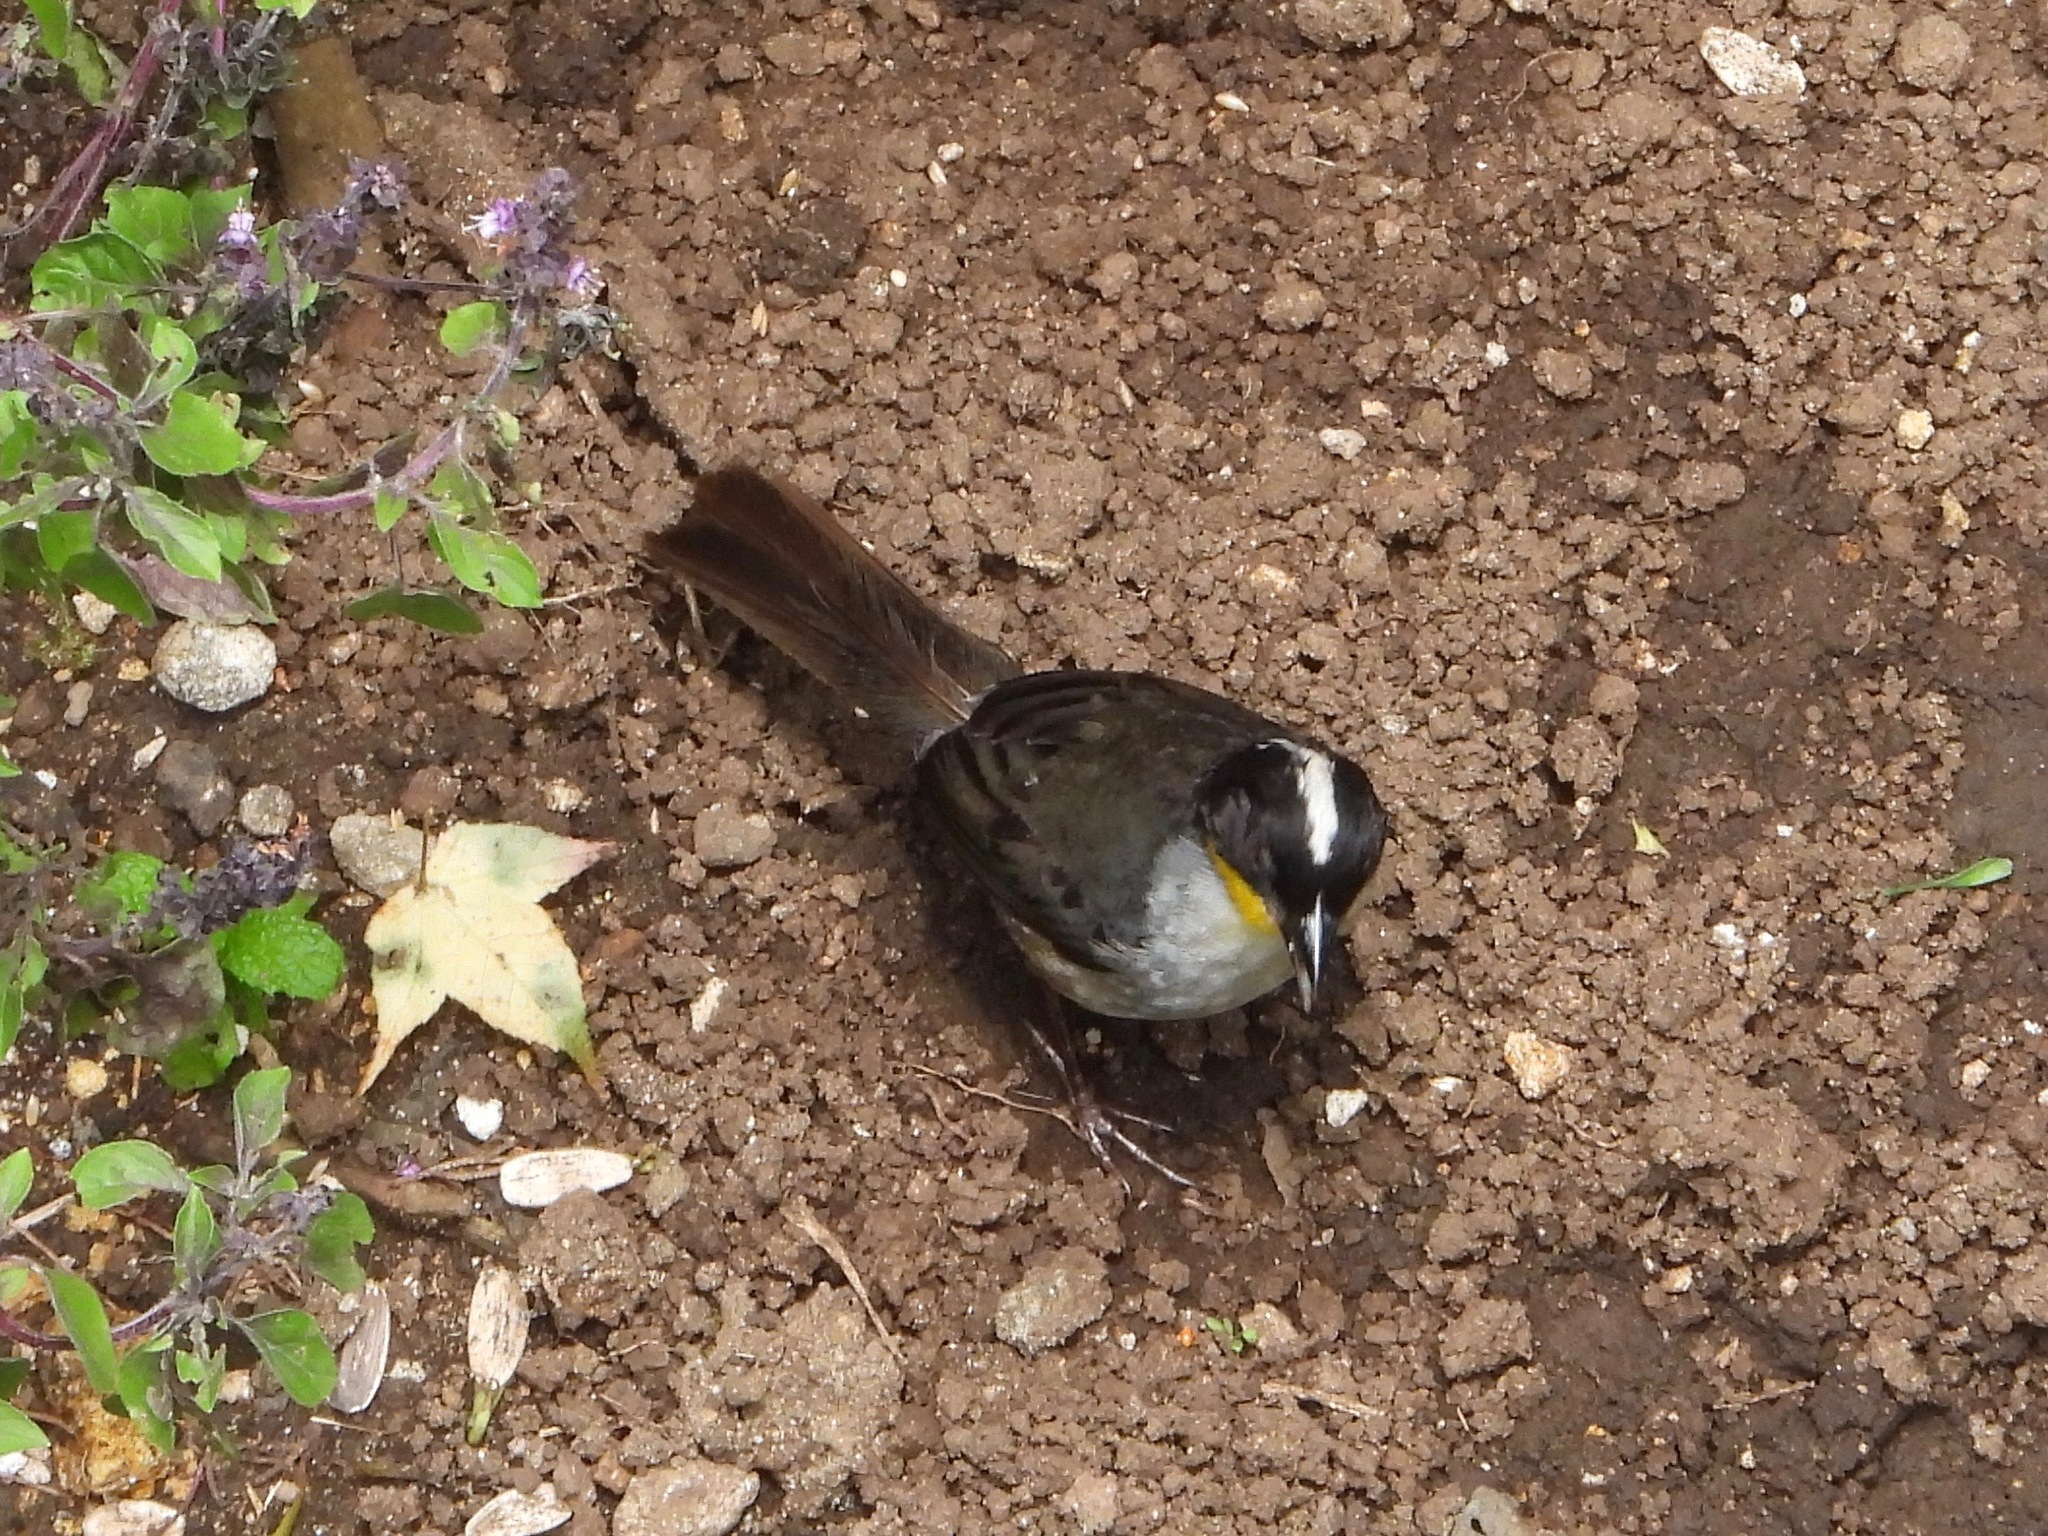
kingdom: Animalia
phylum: Chordata
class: Aves
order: Passeriformes
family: Passerellidae
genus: Atlapetes
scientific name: Atlapetes albinucha
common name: White-naped brush-finch
